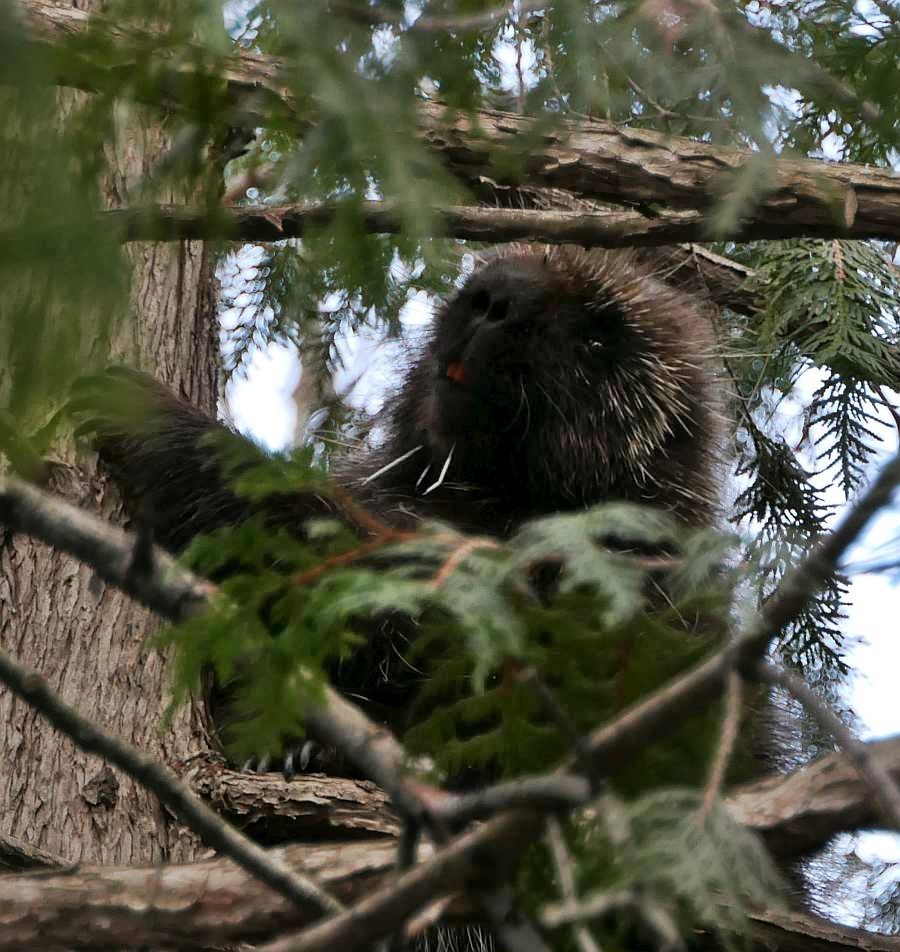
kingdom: Animalia
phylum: Chordata
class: Mammalia
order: Rodentia
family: Erethizontidae
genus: Erethizon
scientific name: Erethizon dorsatus
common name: North american porcupine
